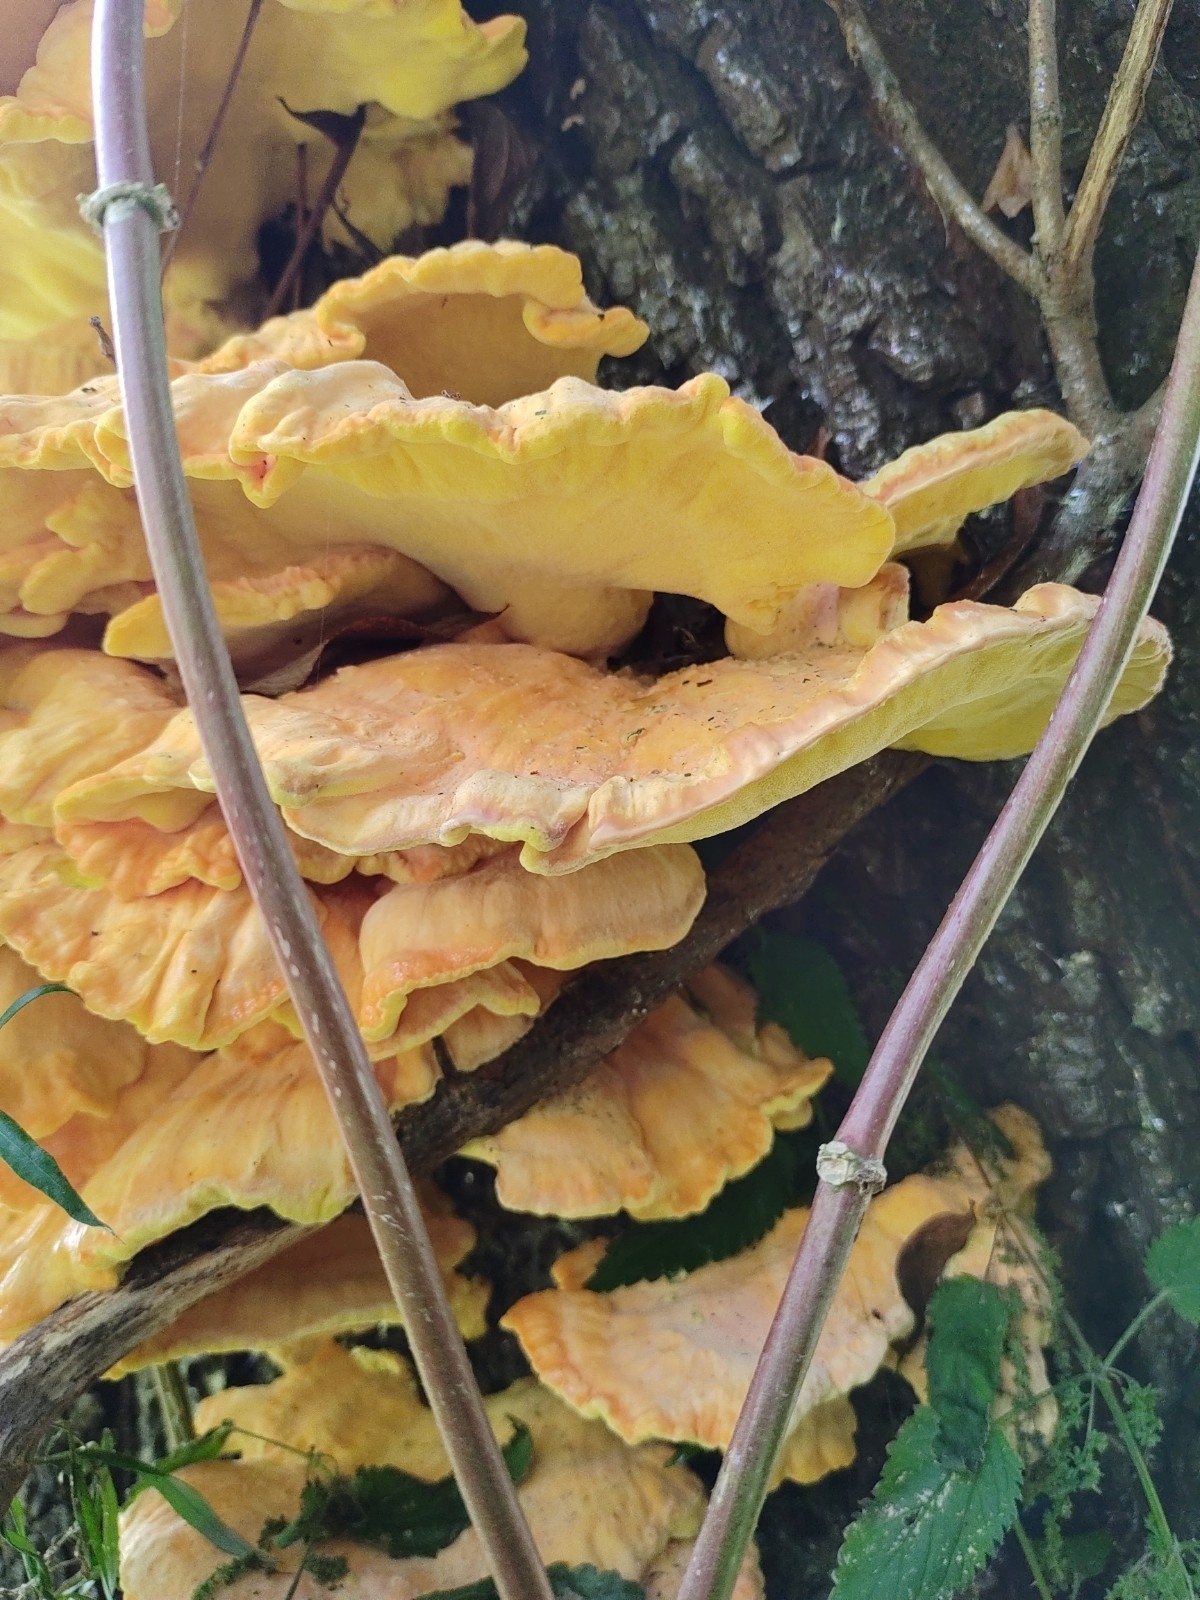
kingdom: Fungi
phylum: Basidiomycota
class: Agaricomycetes
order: Polyporales
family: Laetiporaceae
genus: Laetiporus
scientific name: Laetiporus sulphureus
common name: Chicken of the woods
